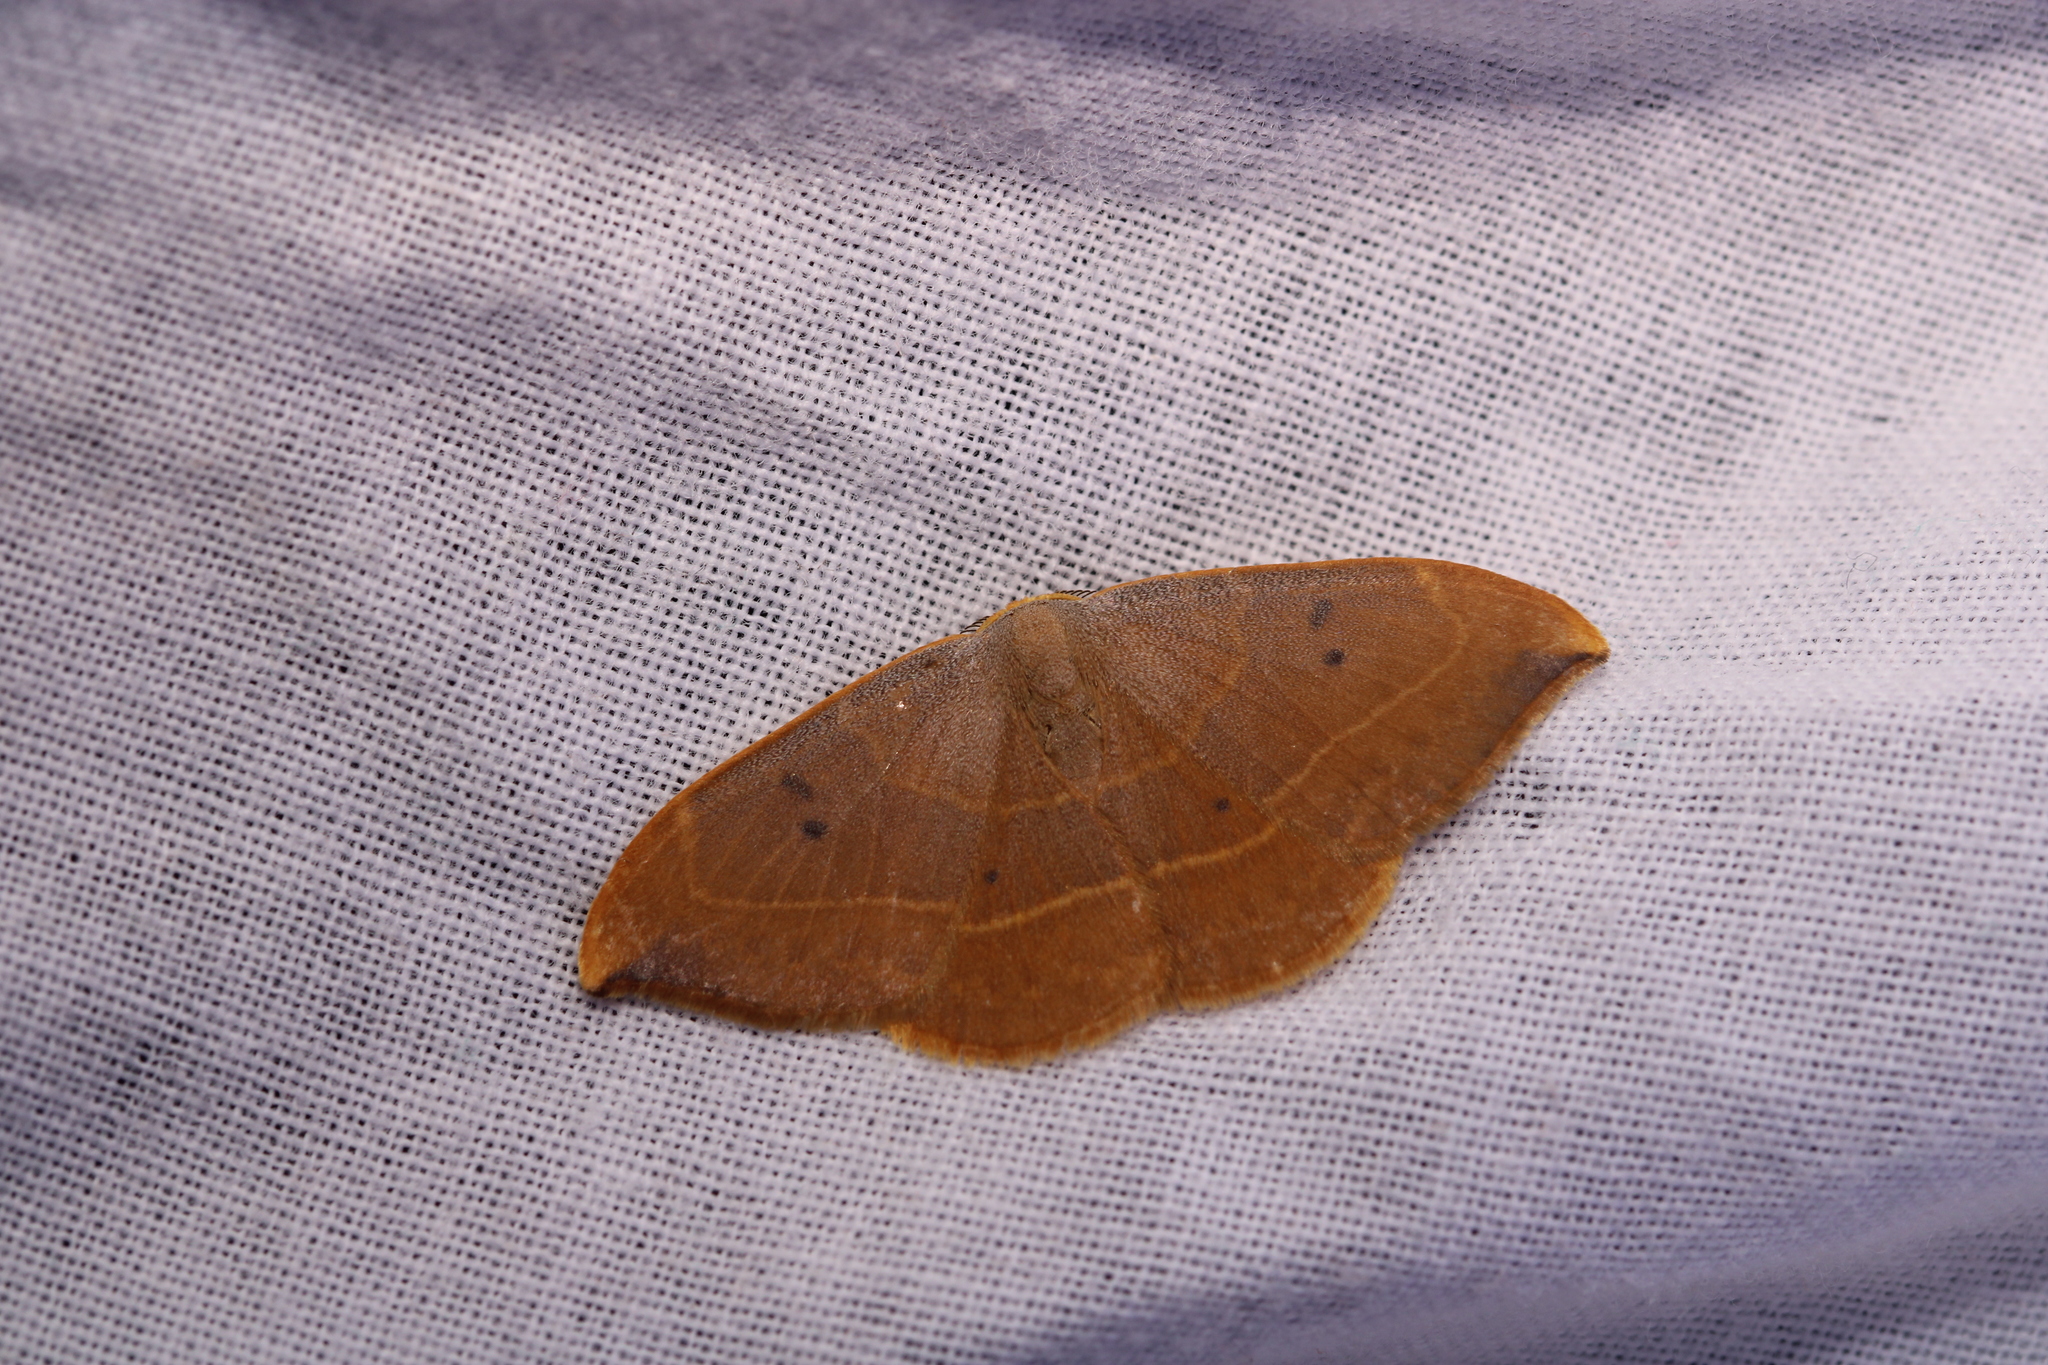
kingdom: Animalia
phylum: Arthropoda
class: Insecta
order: Lepidoptera
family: Drepanidae
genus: Watsonalla
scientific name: Watsonalla binaria
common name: Oak hook-tip
